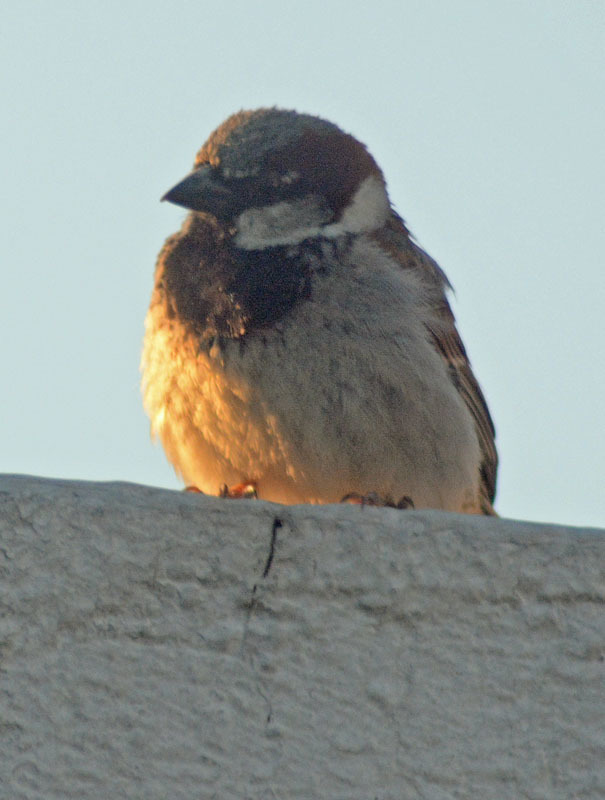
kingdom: Animalia
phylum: Chordata
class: Aves
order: Passeriformes
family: Passeridae
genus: Passer
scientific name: Passer domesticus
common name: House sparrow
